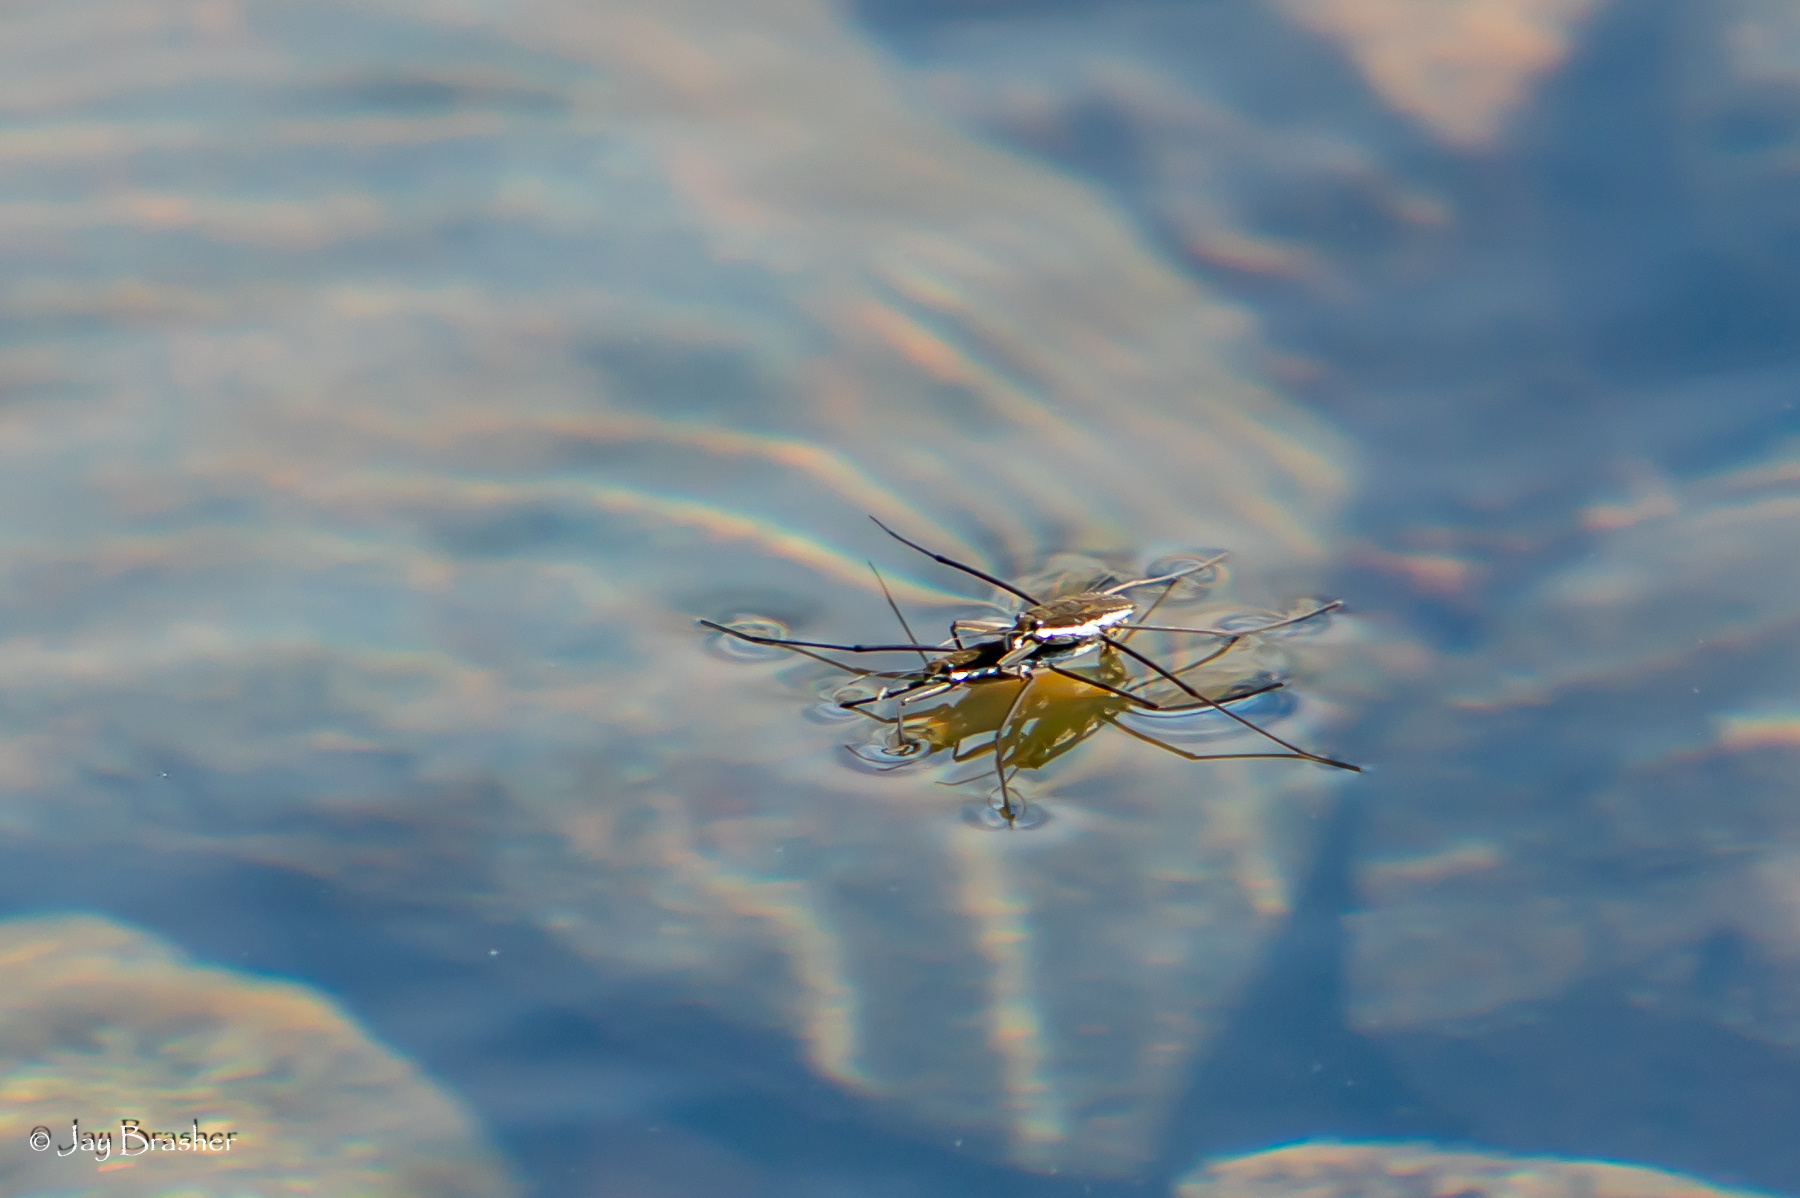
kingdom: Animalia
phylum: Arthropoda
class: Insecta
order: Hemiptera
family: Gerridae
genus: Aquarius
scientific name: Aquarius remigis
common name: Common water strider
